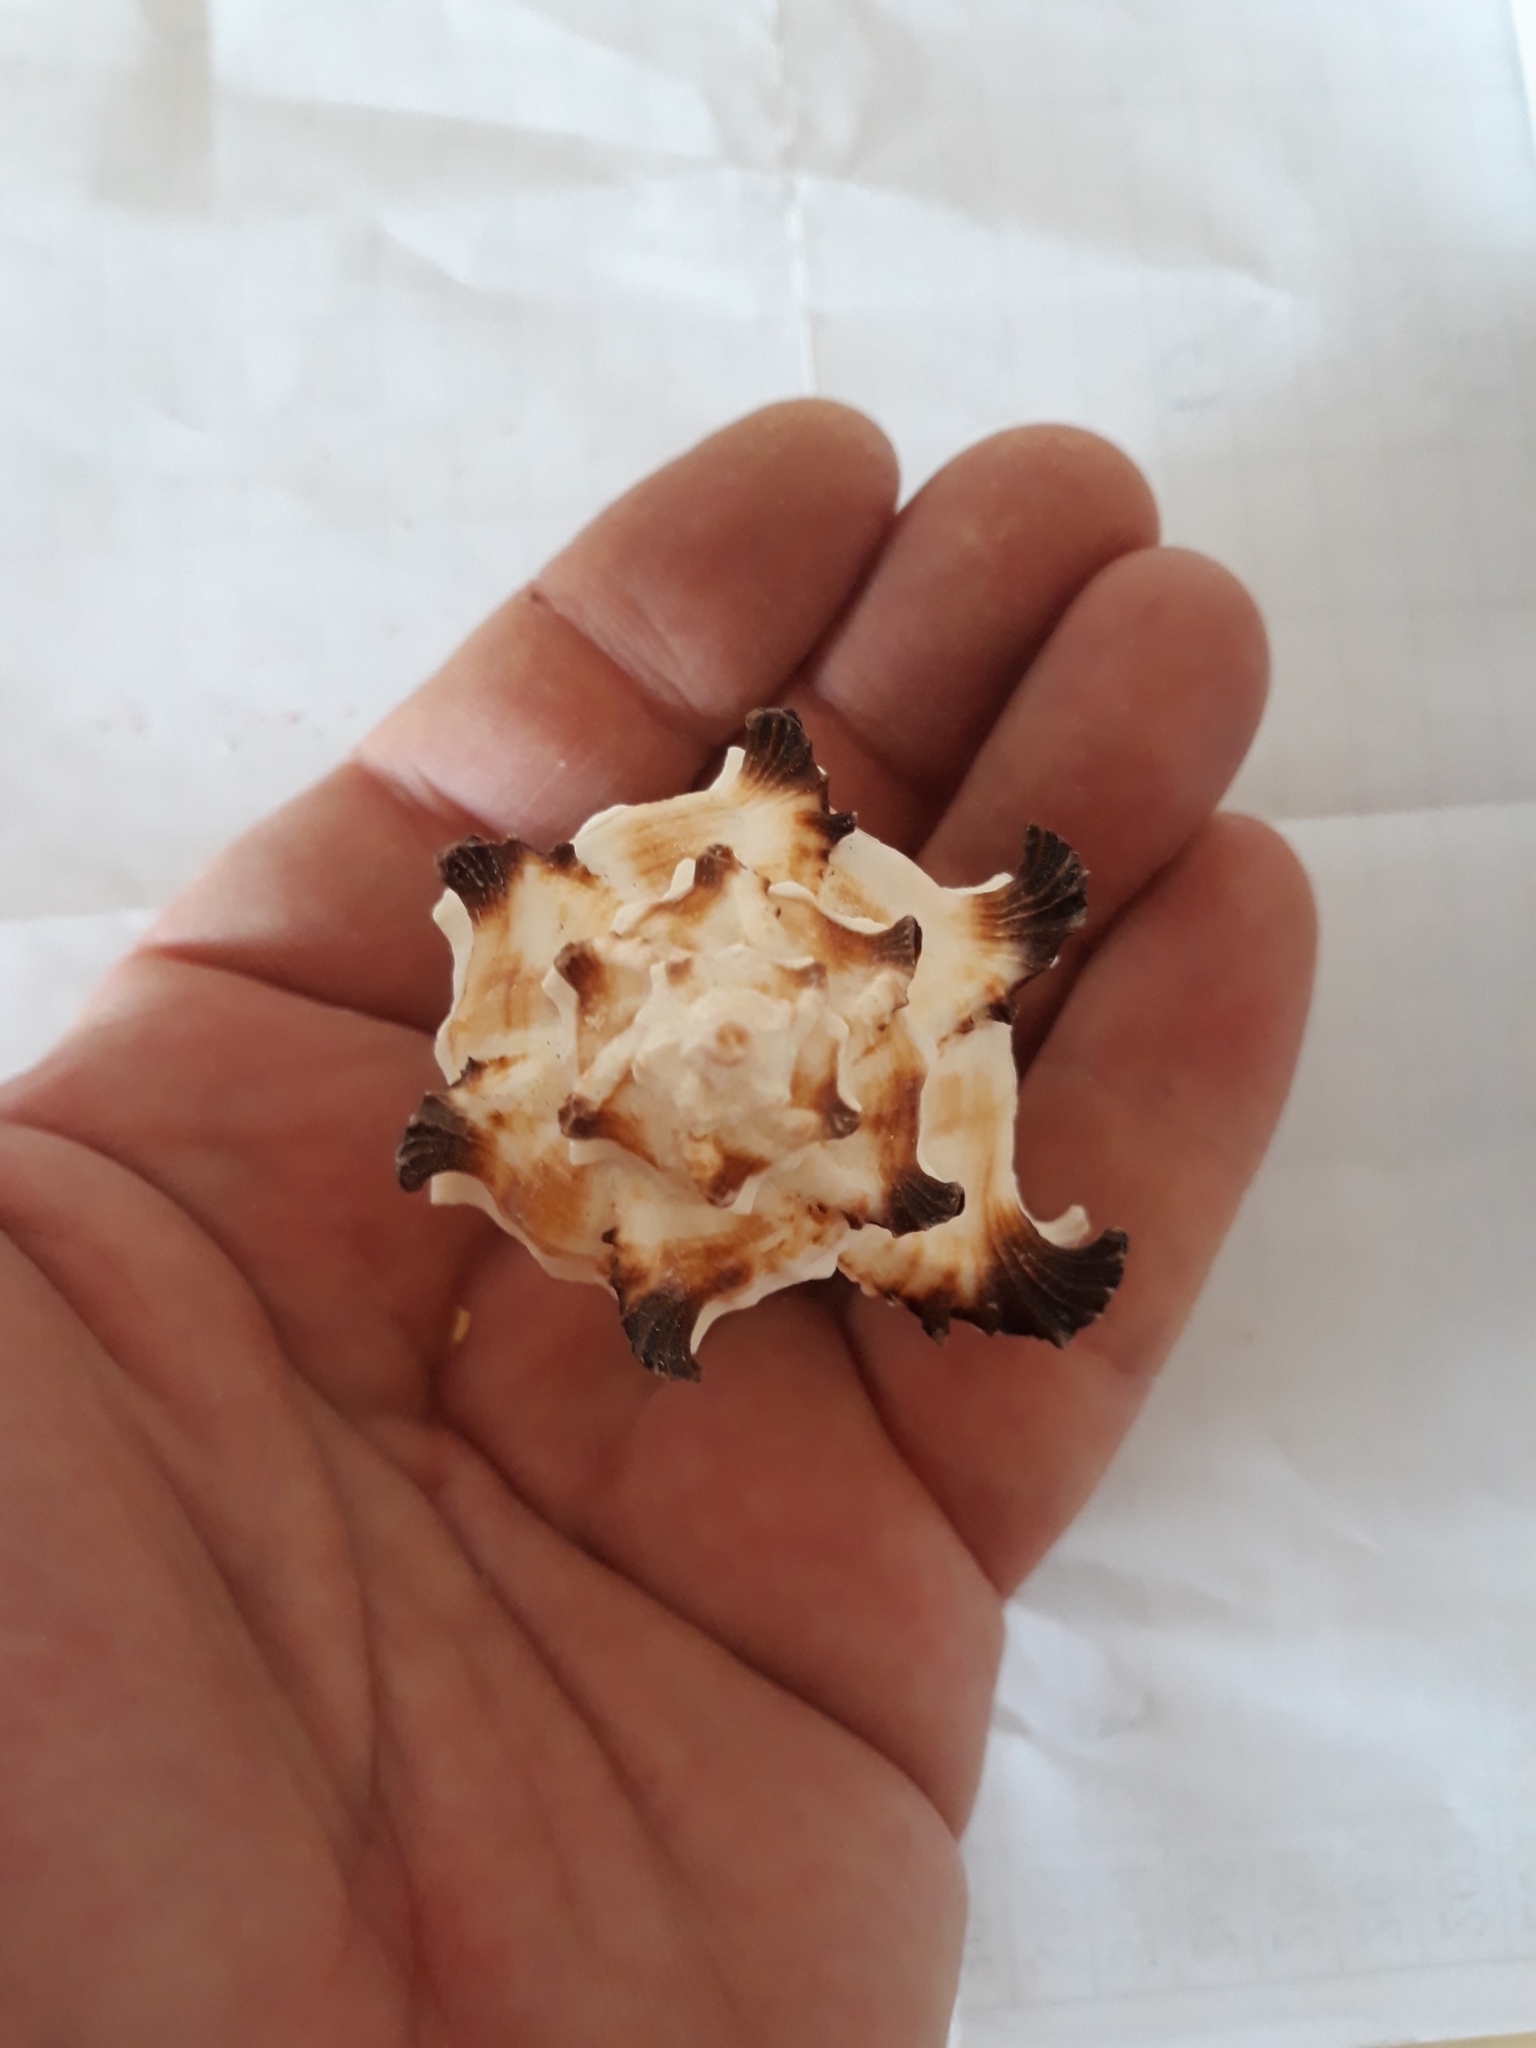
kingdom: Animalia
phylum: Mollusca
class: Gastropoda
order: Neogastropoda
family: Muricidae
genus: Hexaplex
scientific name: Hexaplex cichoreum
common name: Endive murex
